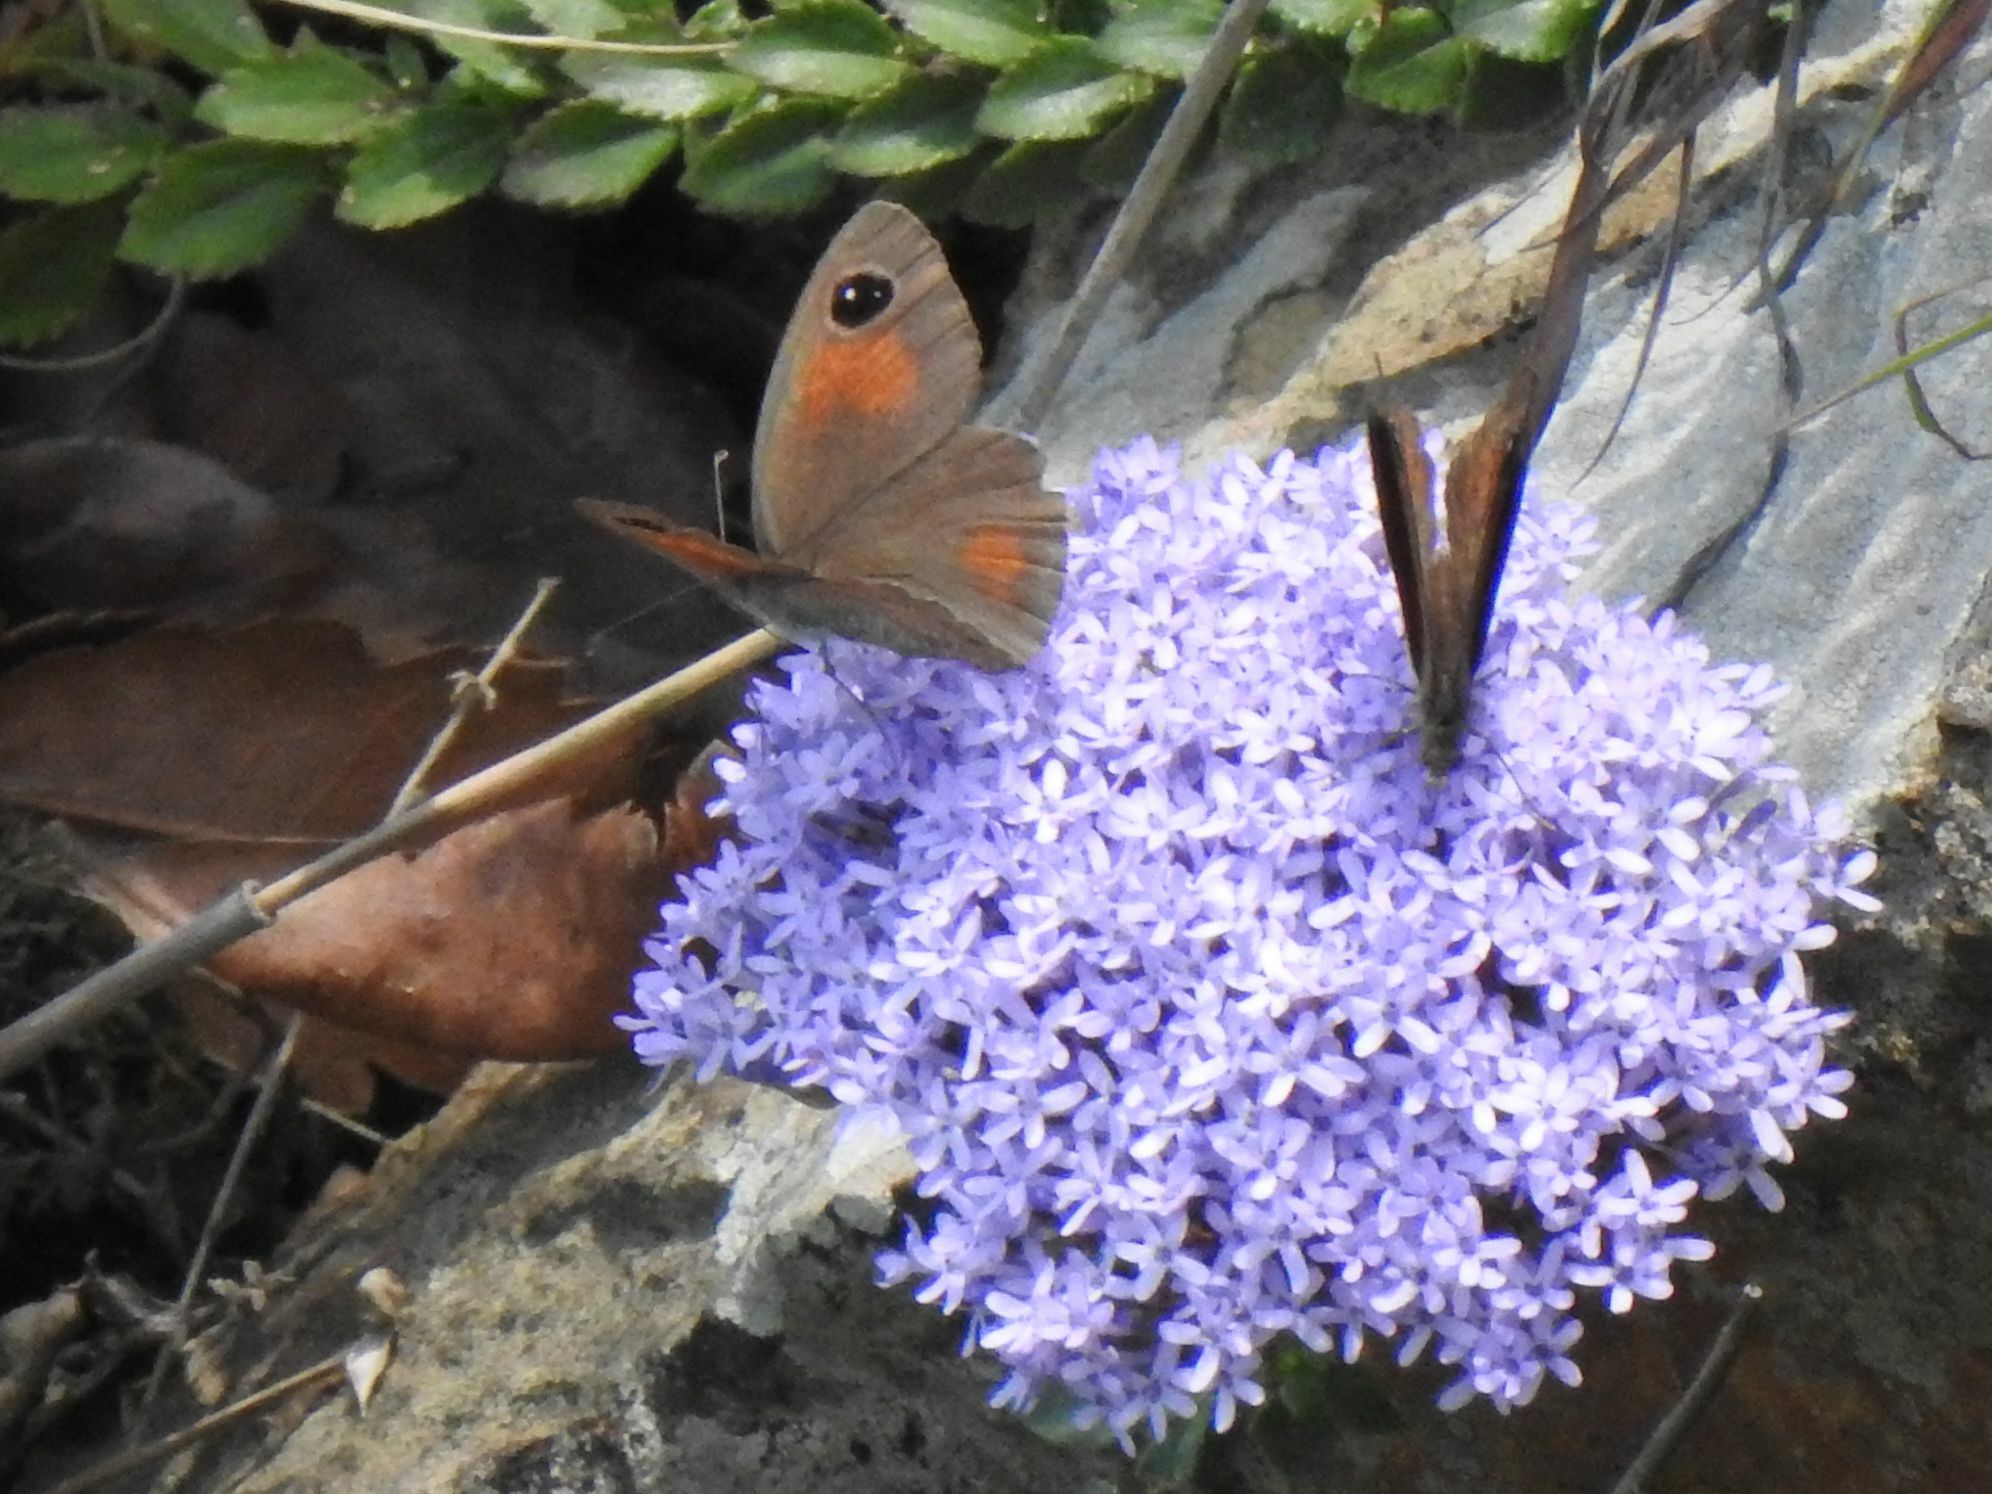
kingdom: Animalia
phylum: Arthropoda
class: Insecta
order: Lepidoptera
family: Nymphalidae
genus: Stygionympha
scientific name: Stygionympha wichgrafi
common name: Wichgraf’s hillside brown
